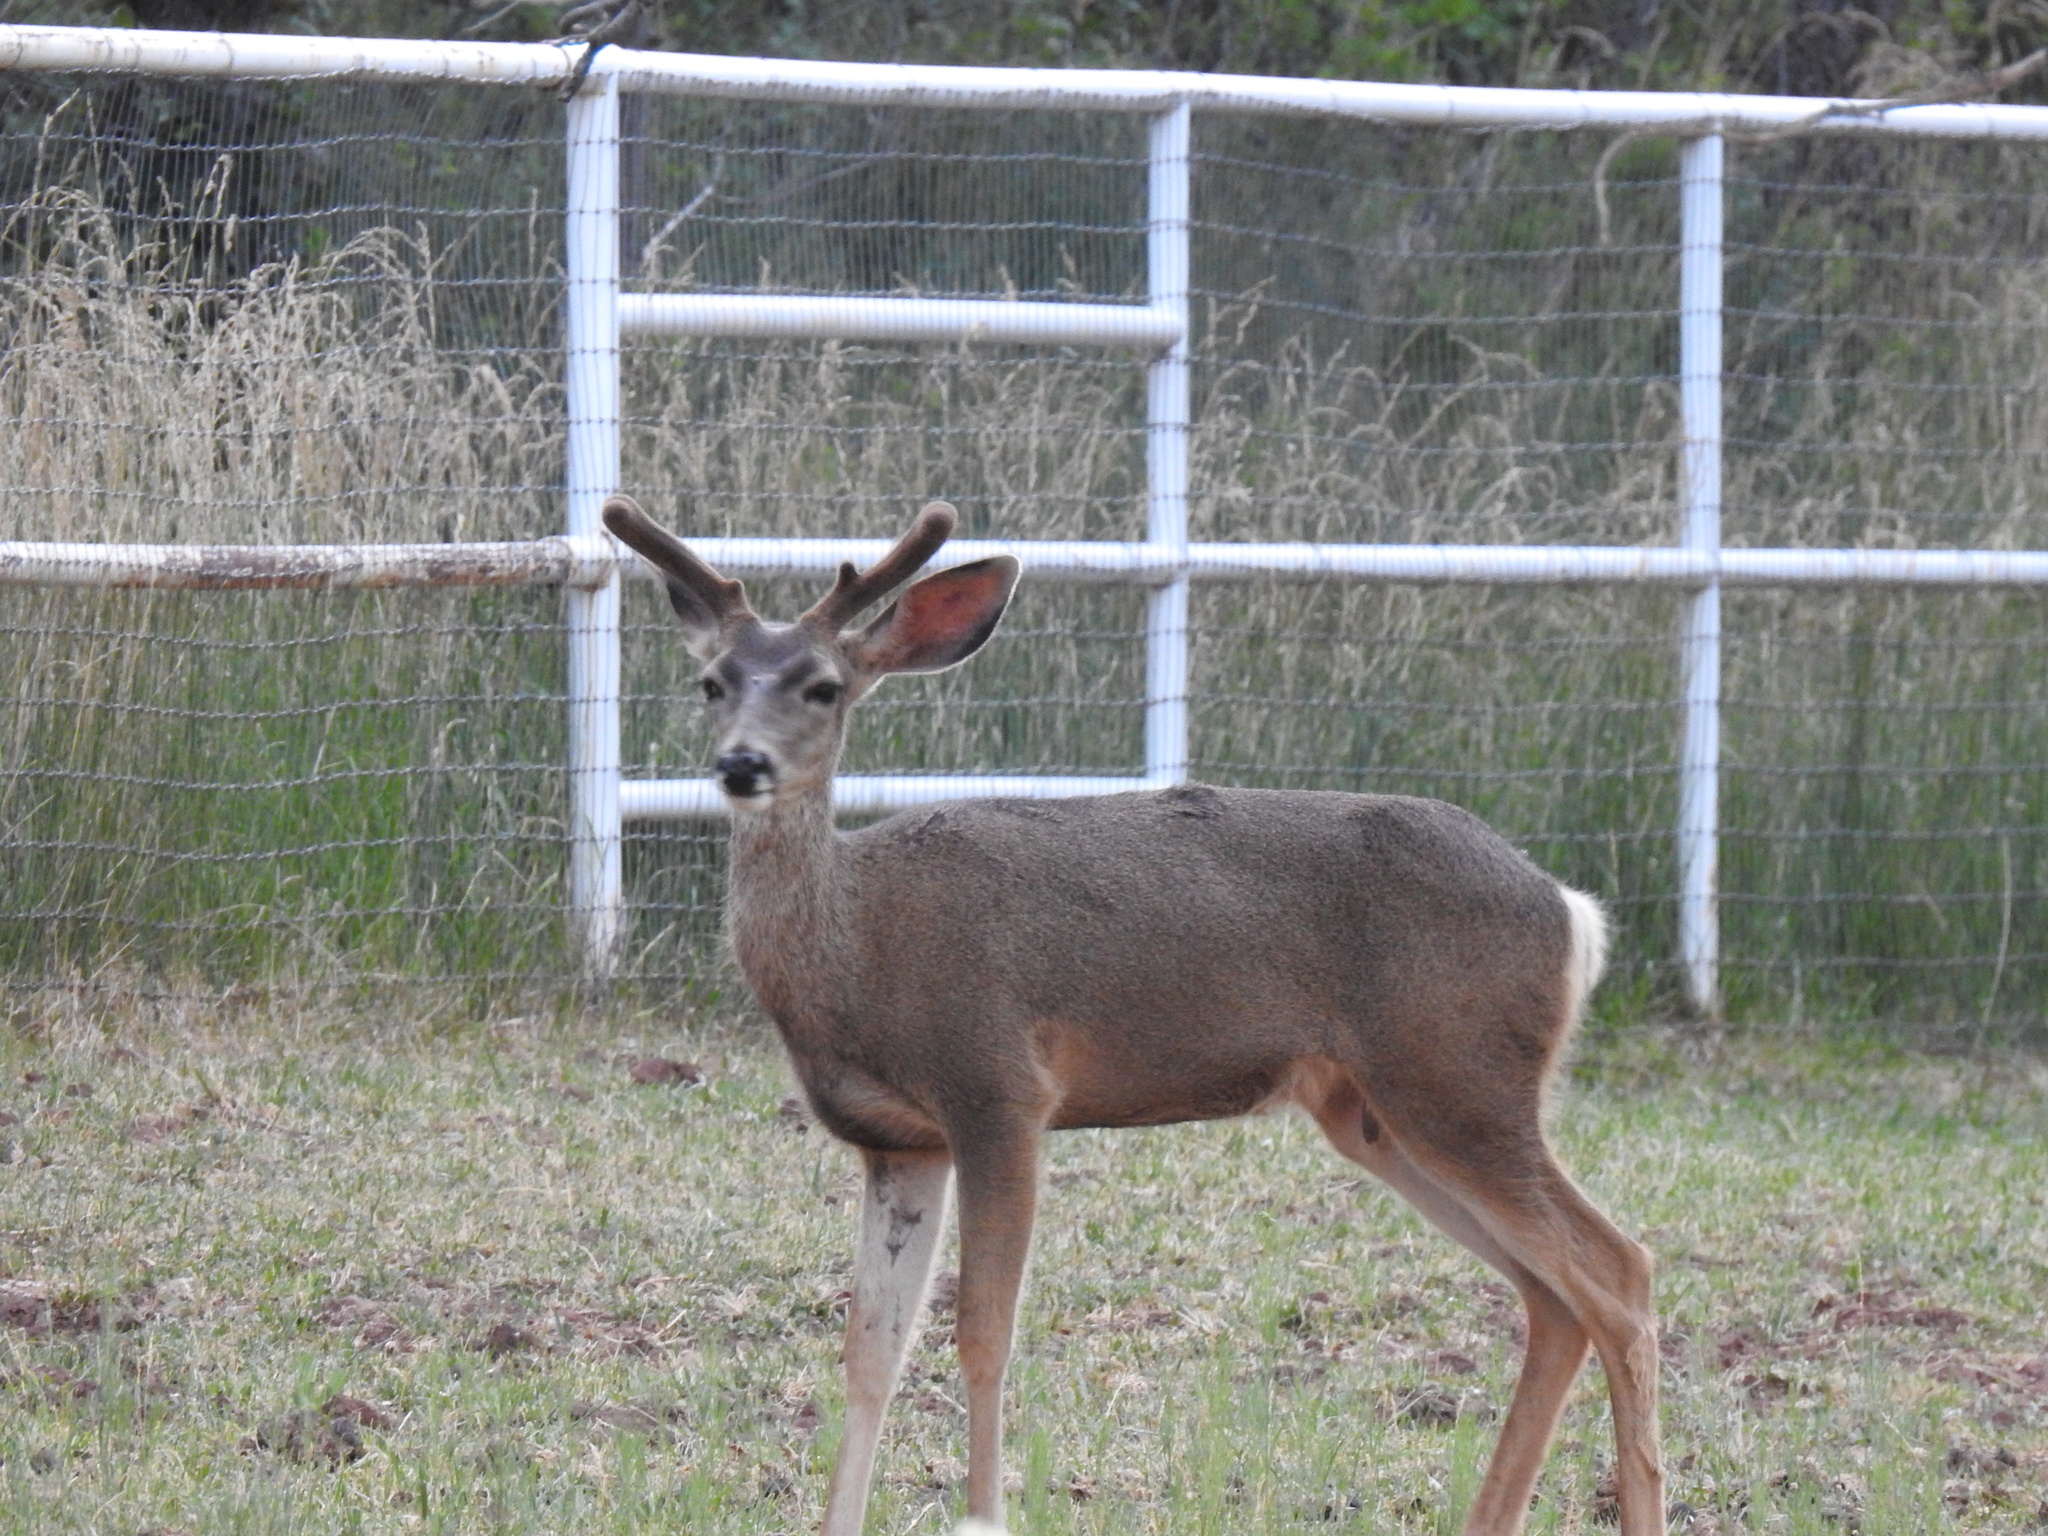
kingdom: Animalia
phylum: Chordata
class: Mammalia
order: Artiodactyla
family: Cervidae
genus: Odocoileus
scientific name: Odocoileus hemionus
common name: Mule deer
